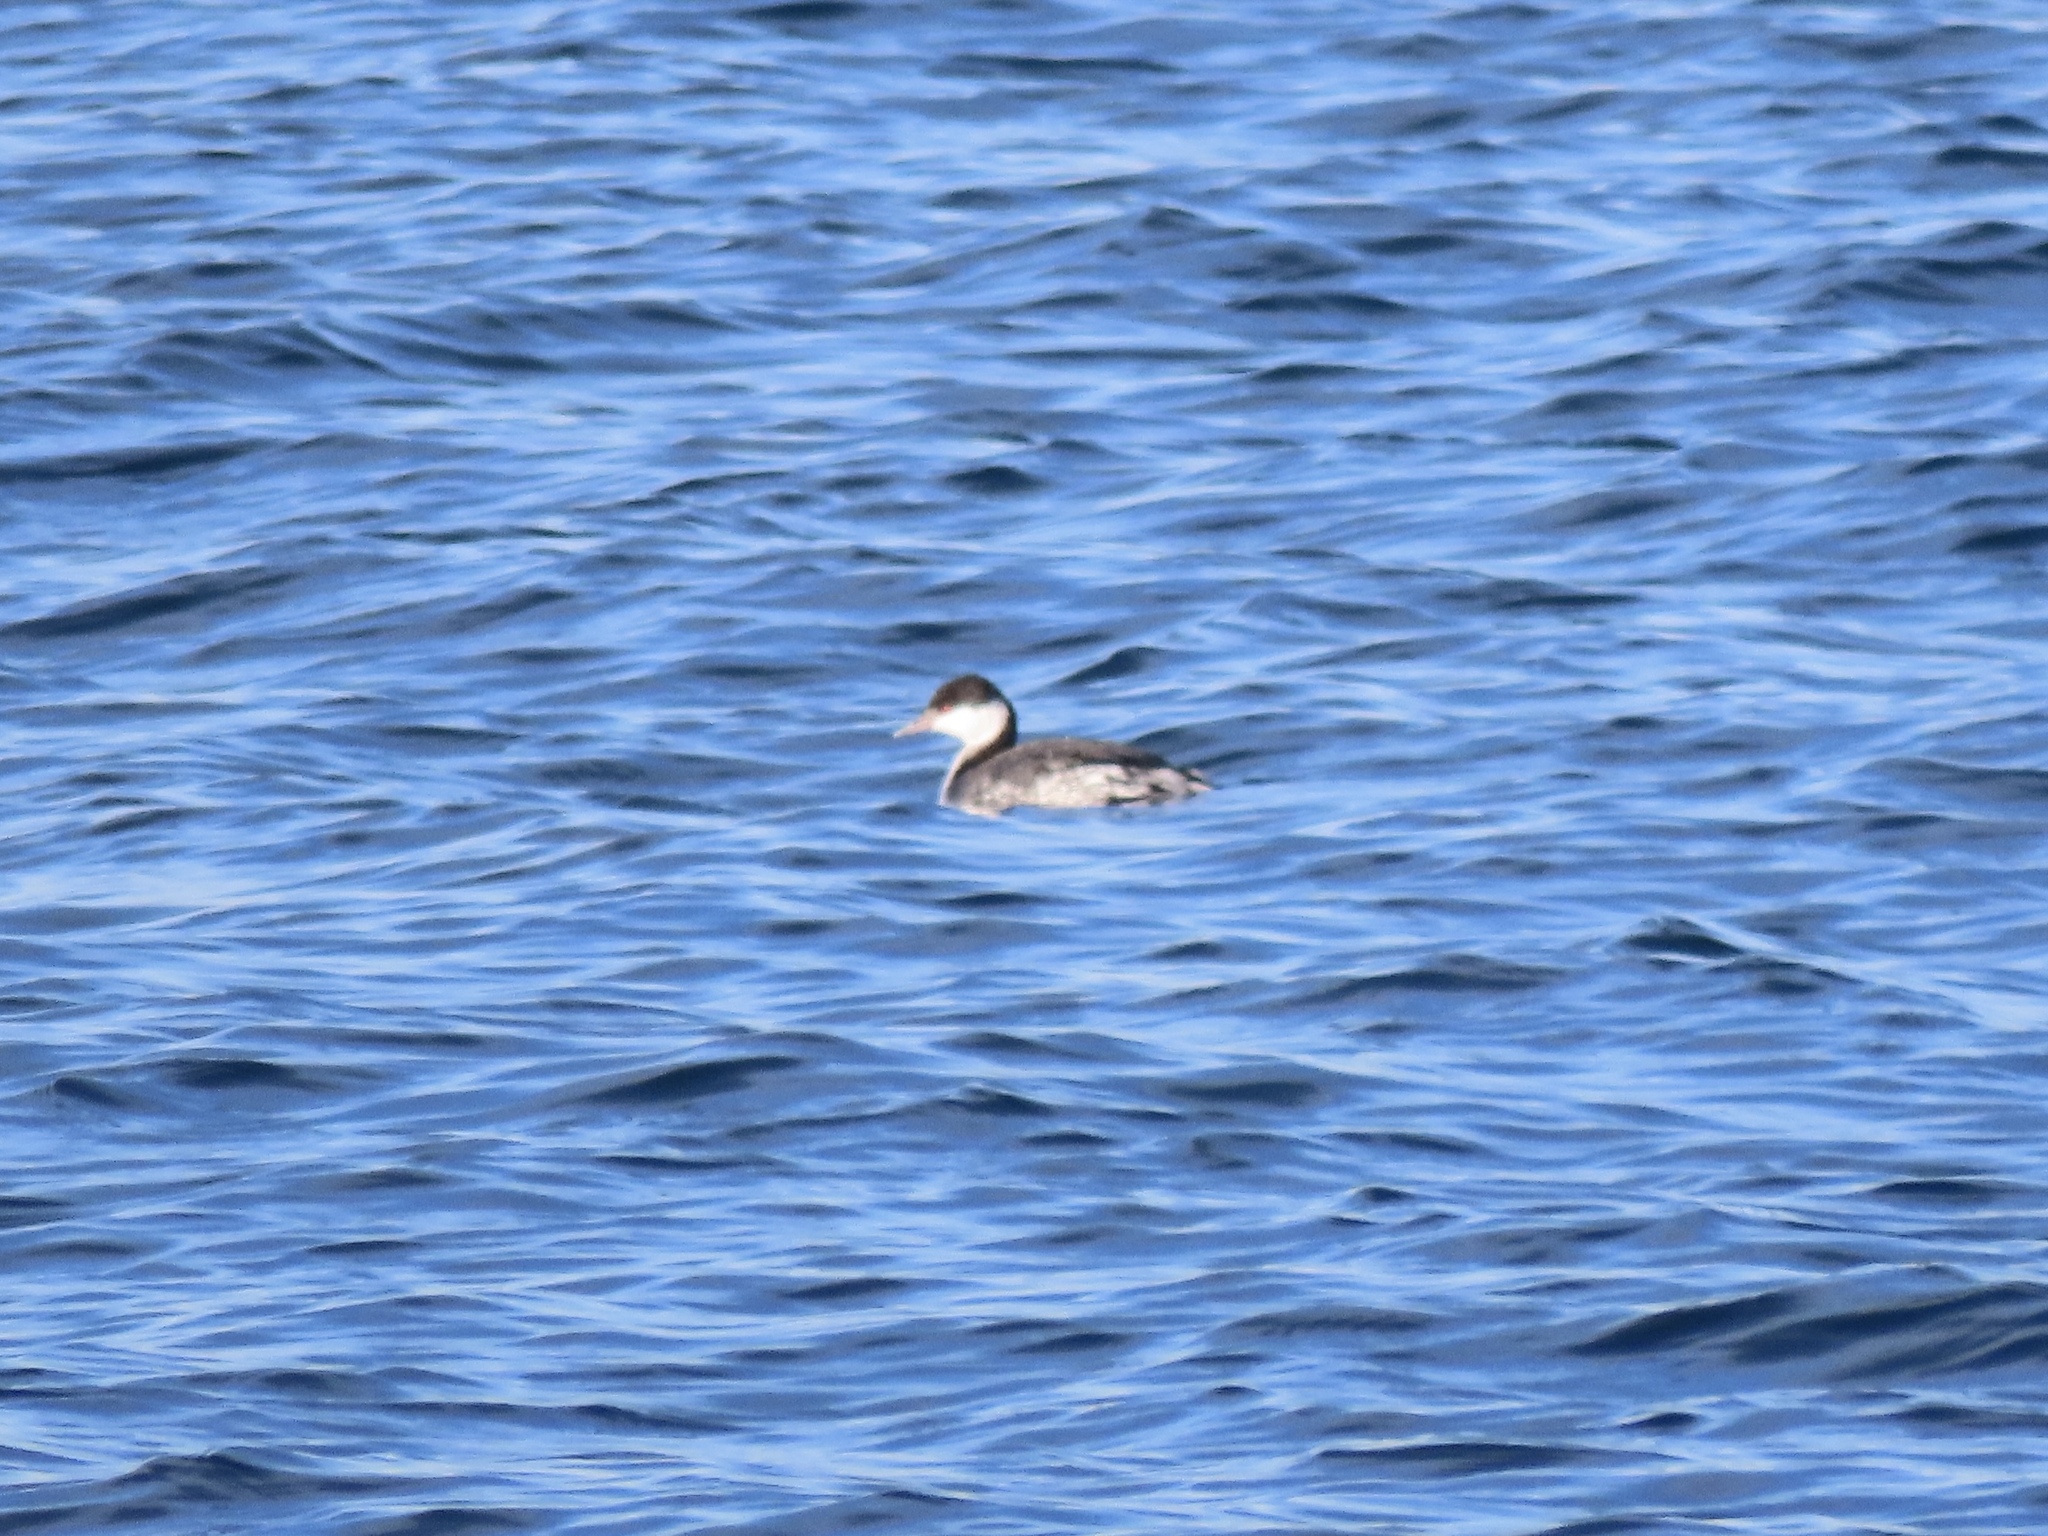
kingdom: Animalia
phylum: Chordata
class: Aves
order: Podicipediformes
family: Podicipedidae
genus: Podiceps
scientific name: Podiceps auritus
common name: Horned grebe
